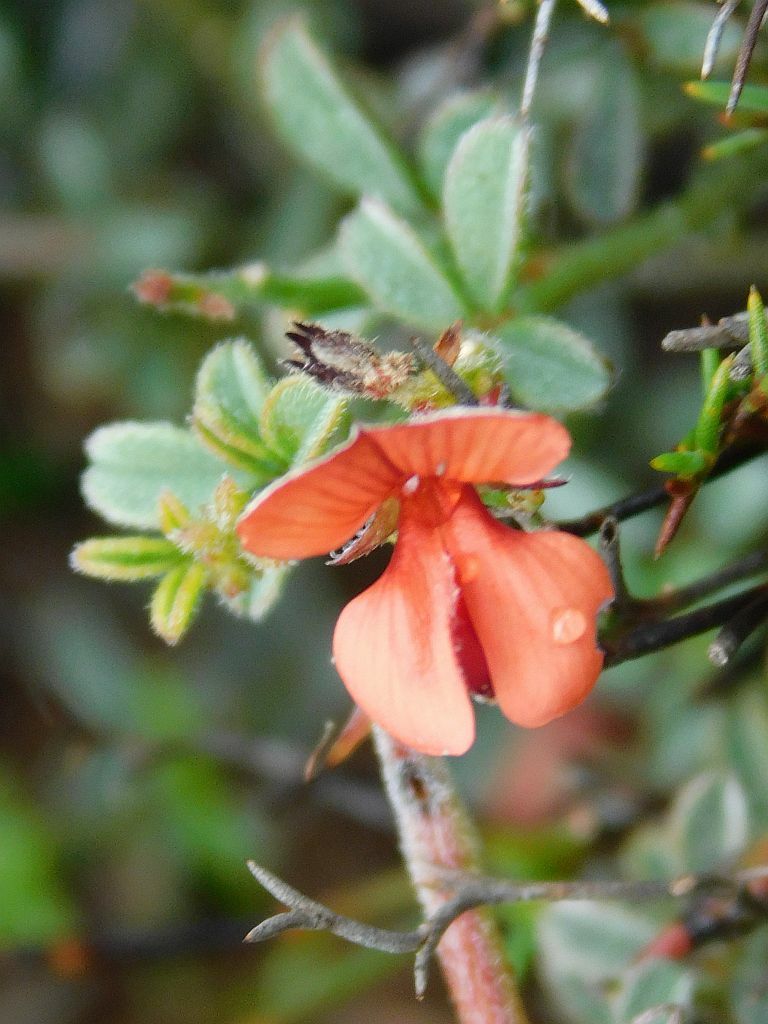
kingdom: Plantae
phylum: Tracheophyta
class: Magnoliopsida
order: Fabales
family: Fabaceae
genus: Indigofera
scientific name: Indigofera priorii
